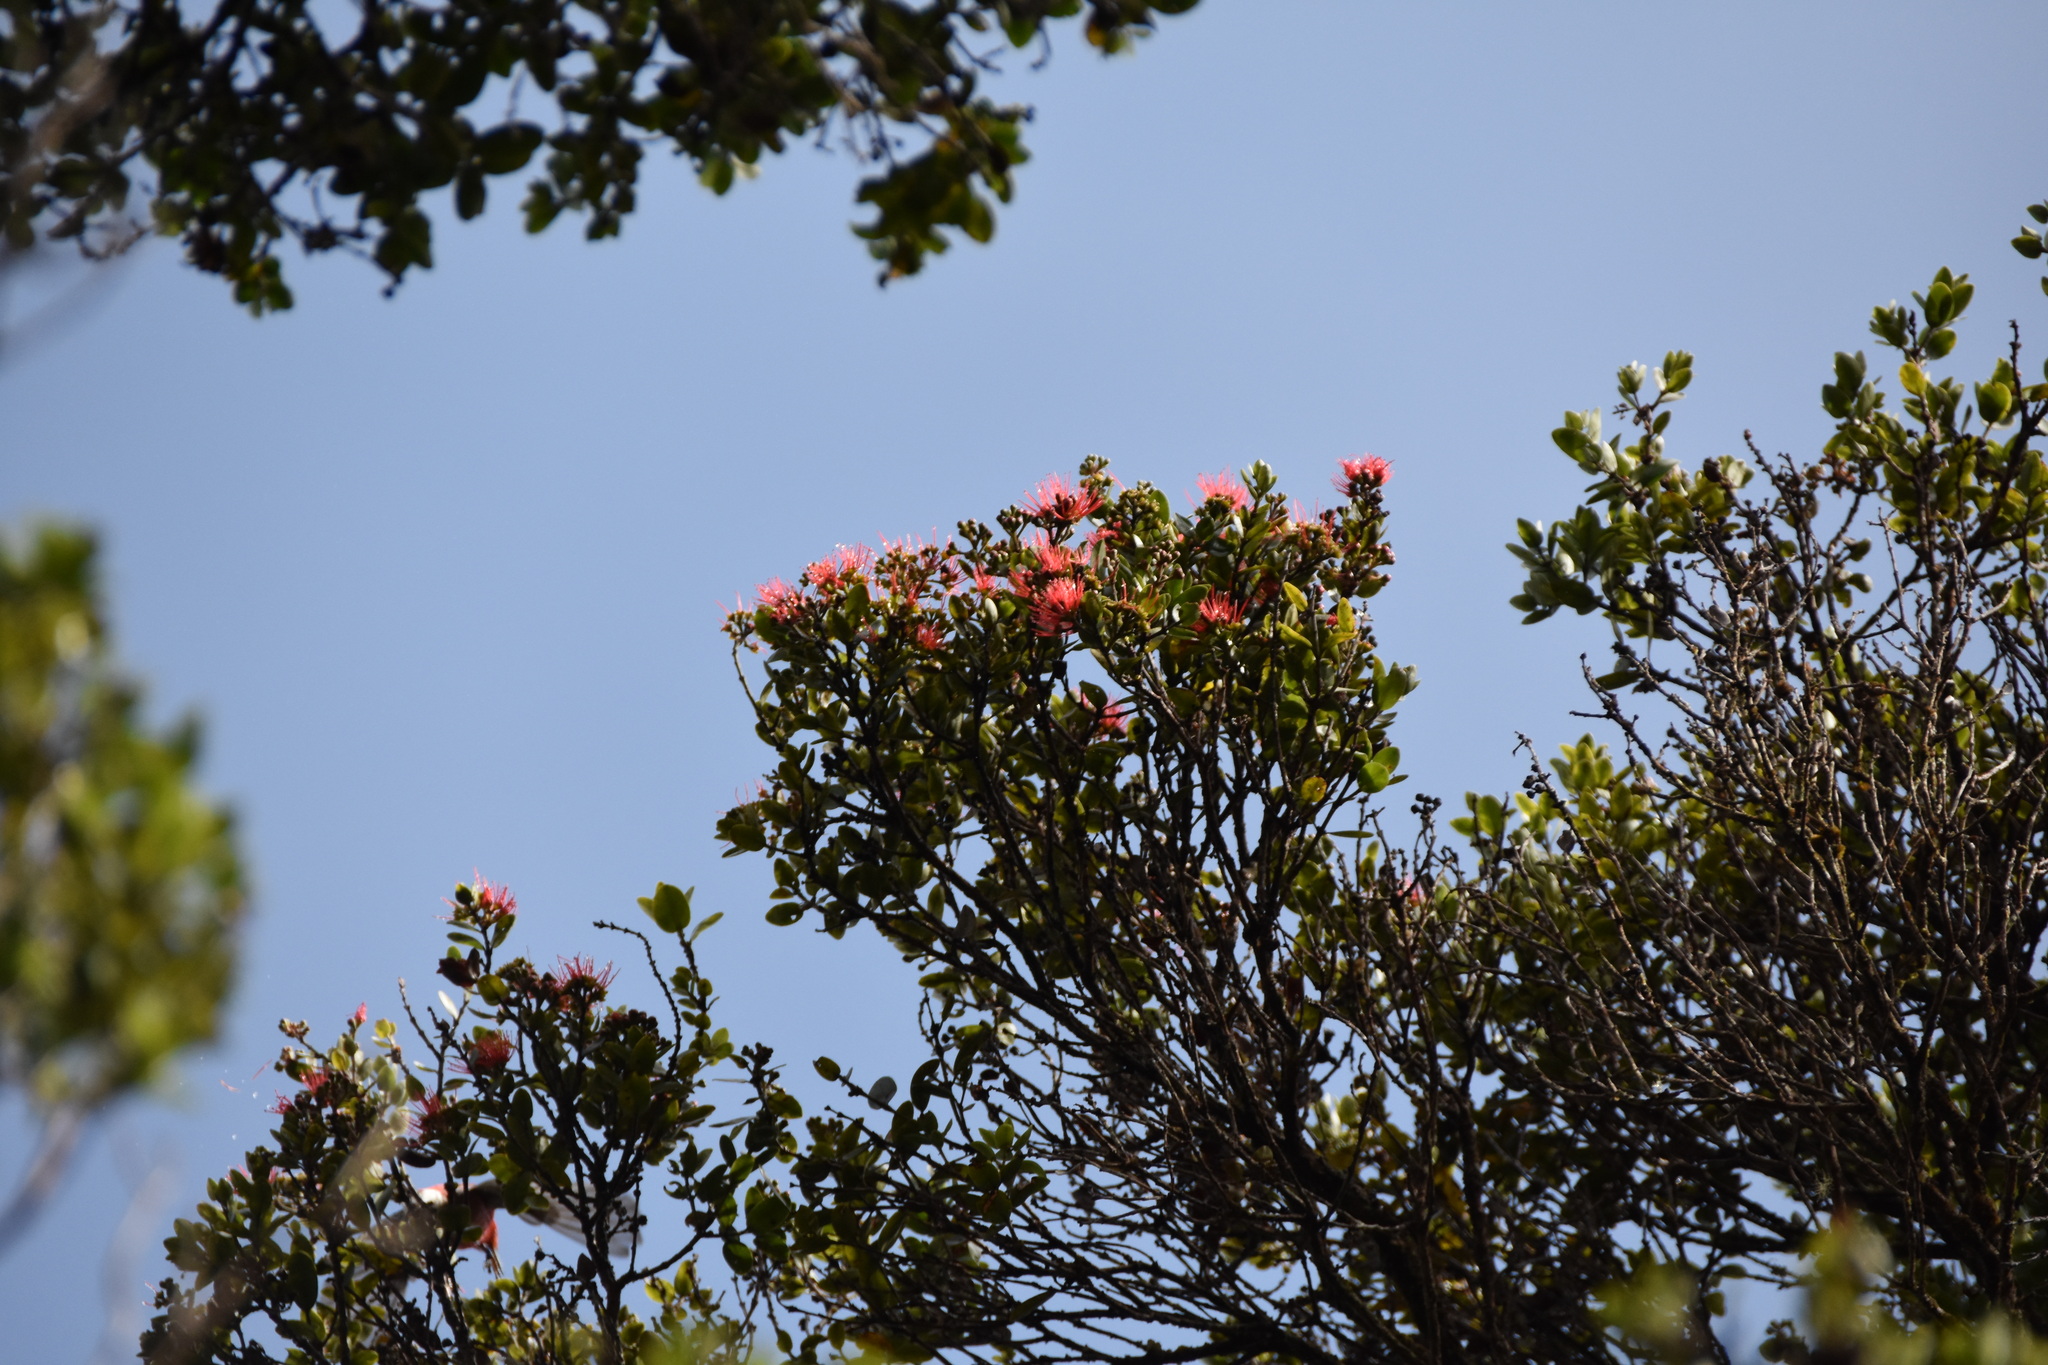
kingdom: Plantae
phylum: Tracheophyta
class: Magnoliopsida
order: Myrtales
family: Myrtaceae
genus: Metrosideros
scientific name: Metrosideros polymorpha
